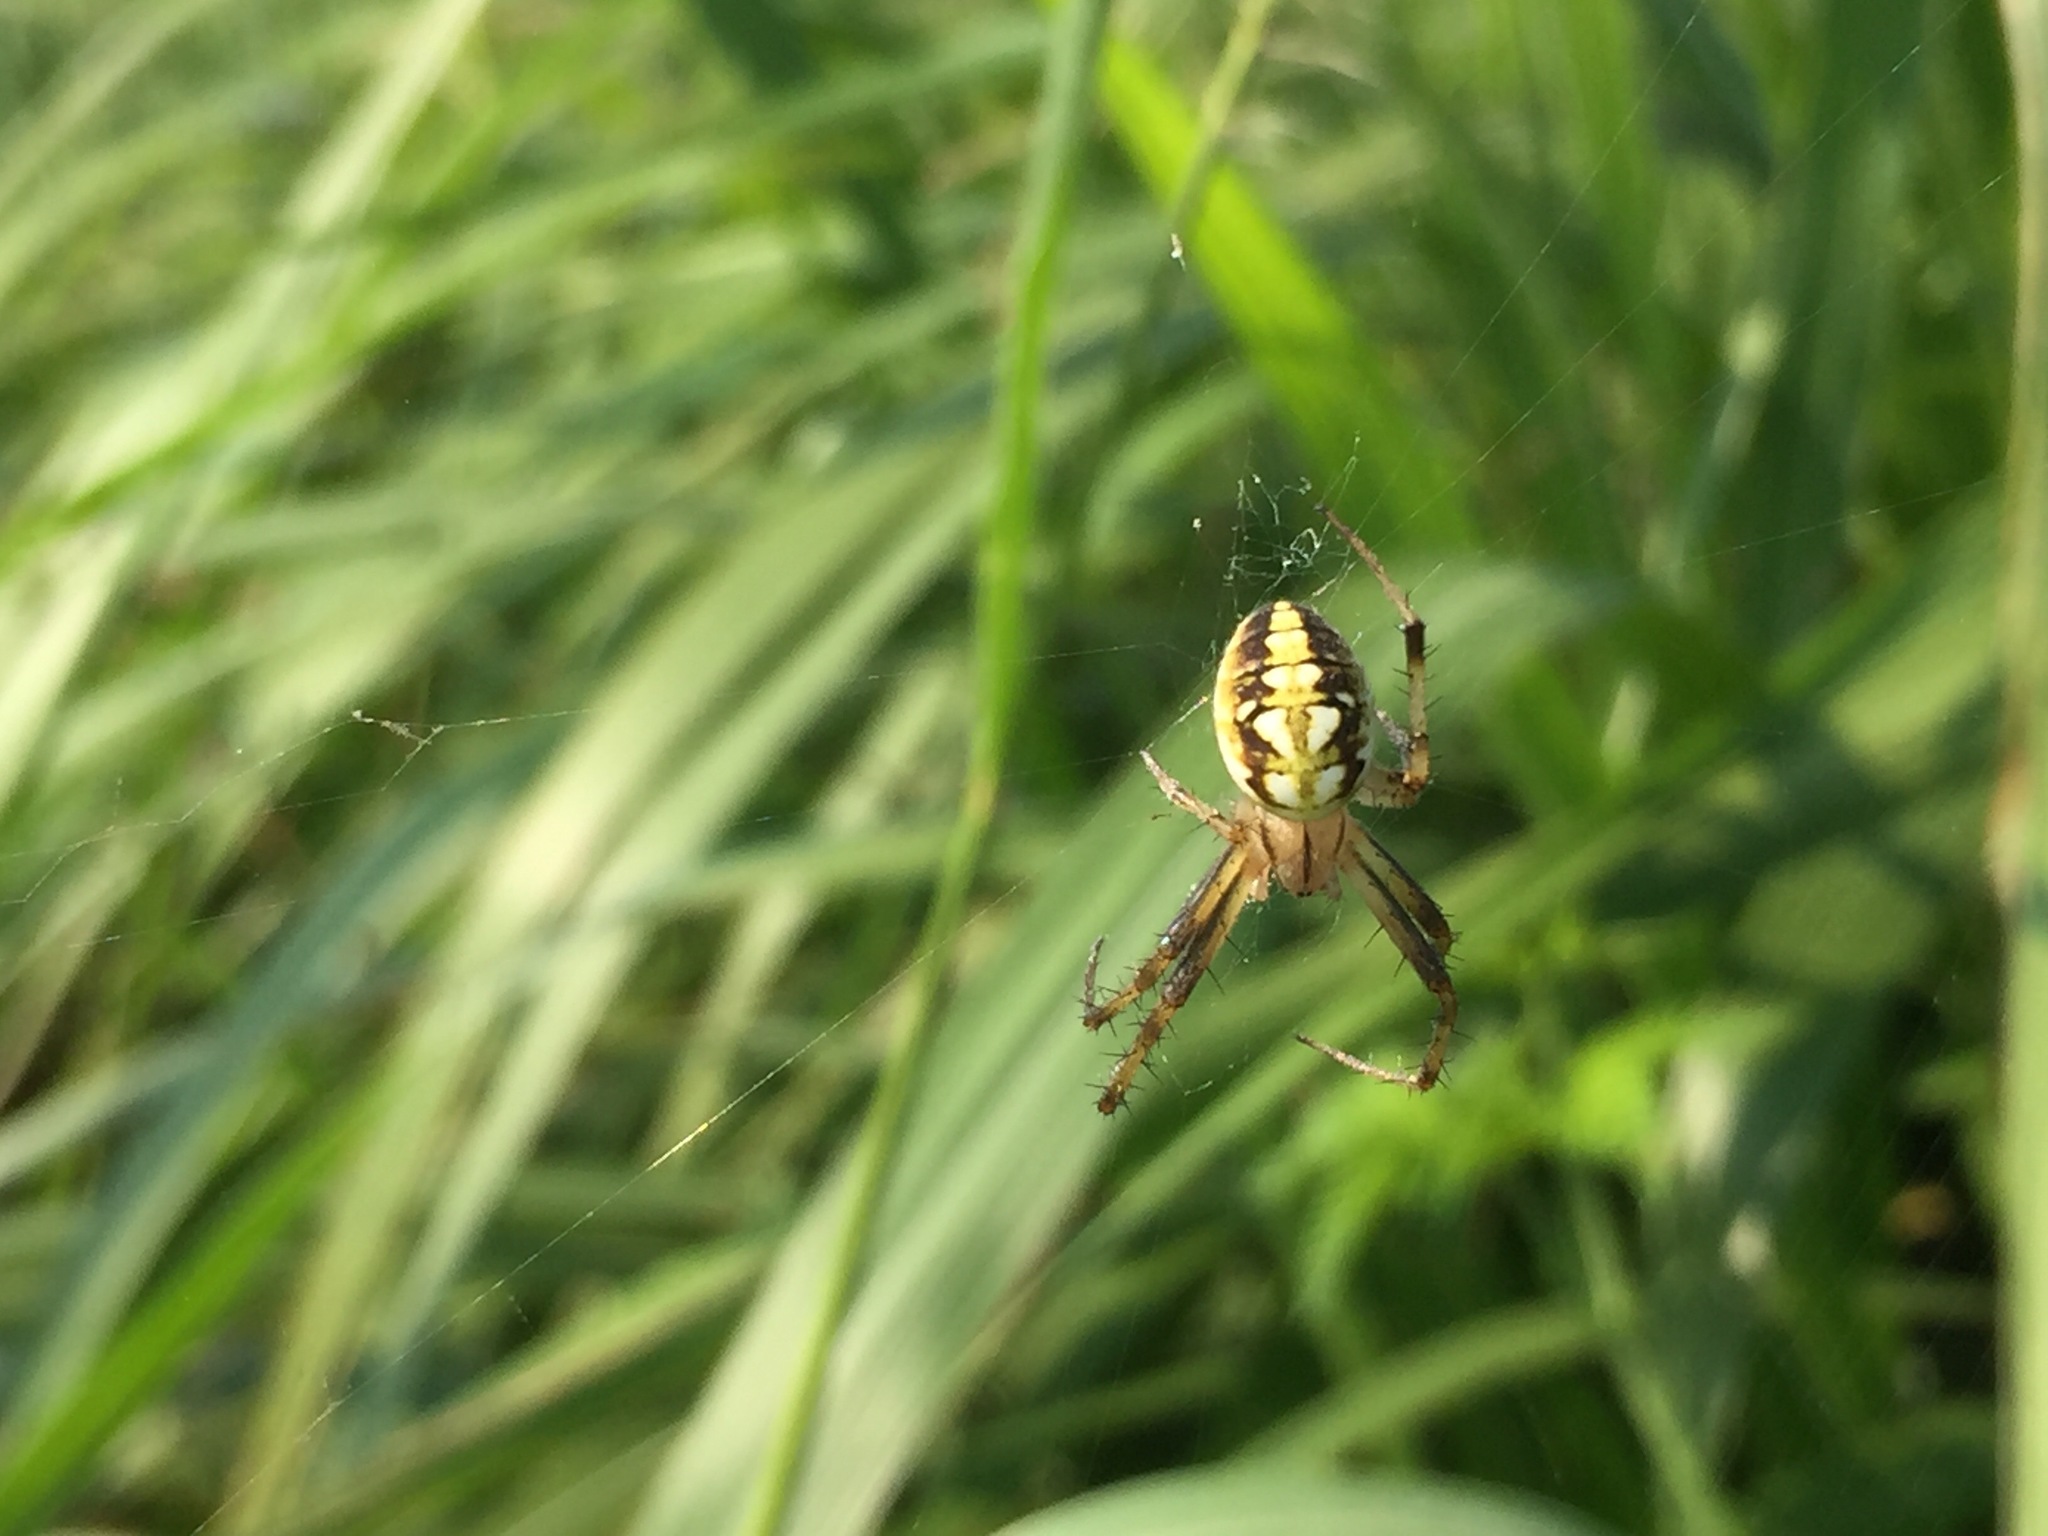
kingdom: Animalia
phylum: Arthropoda
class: Arachnida
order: Araneae
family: Araneidae
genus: Neoscona
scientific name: Neoscona adianta
